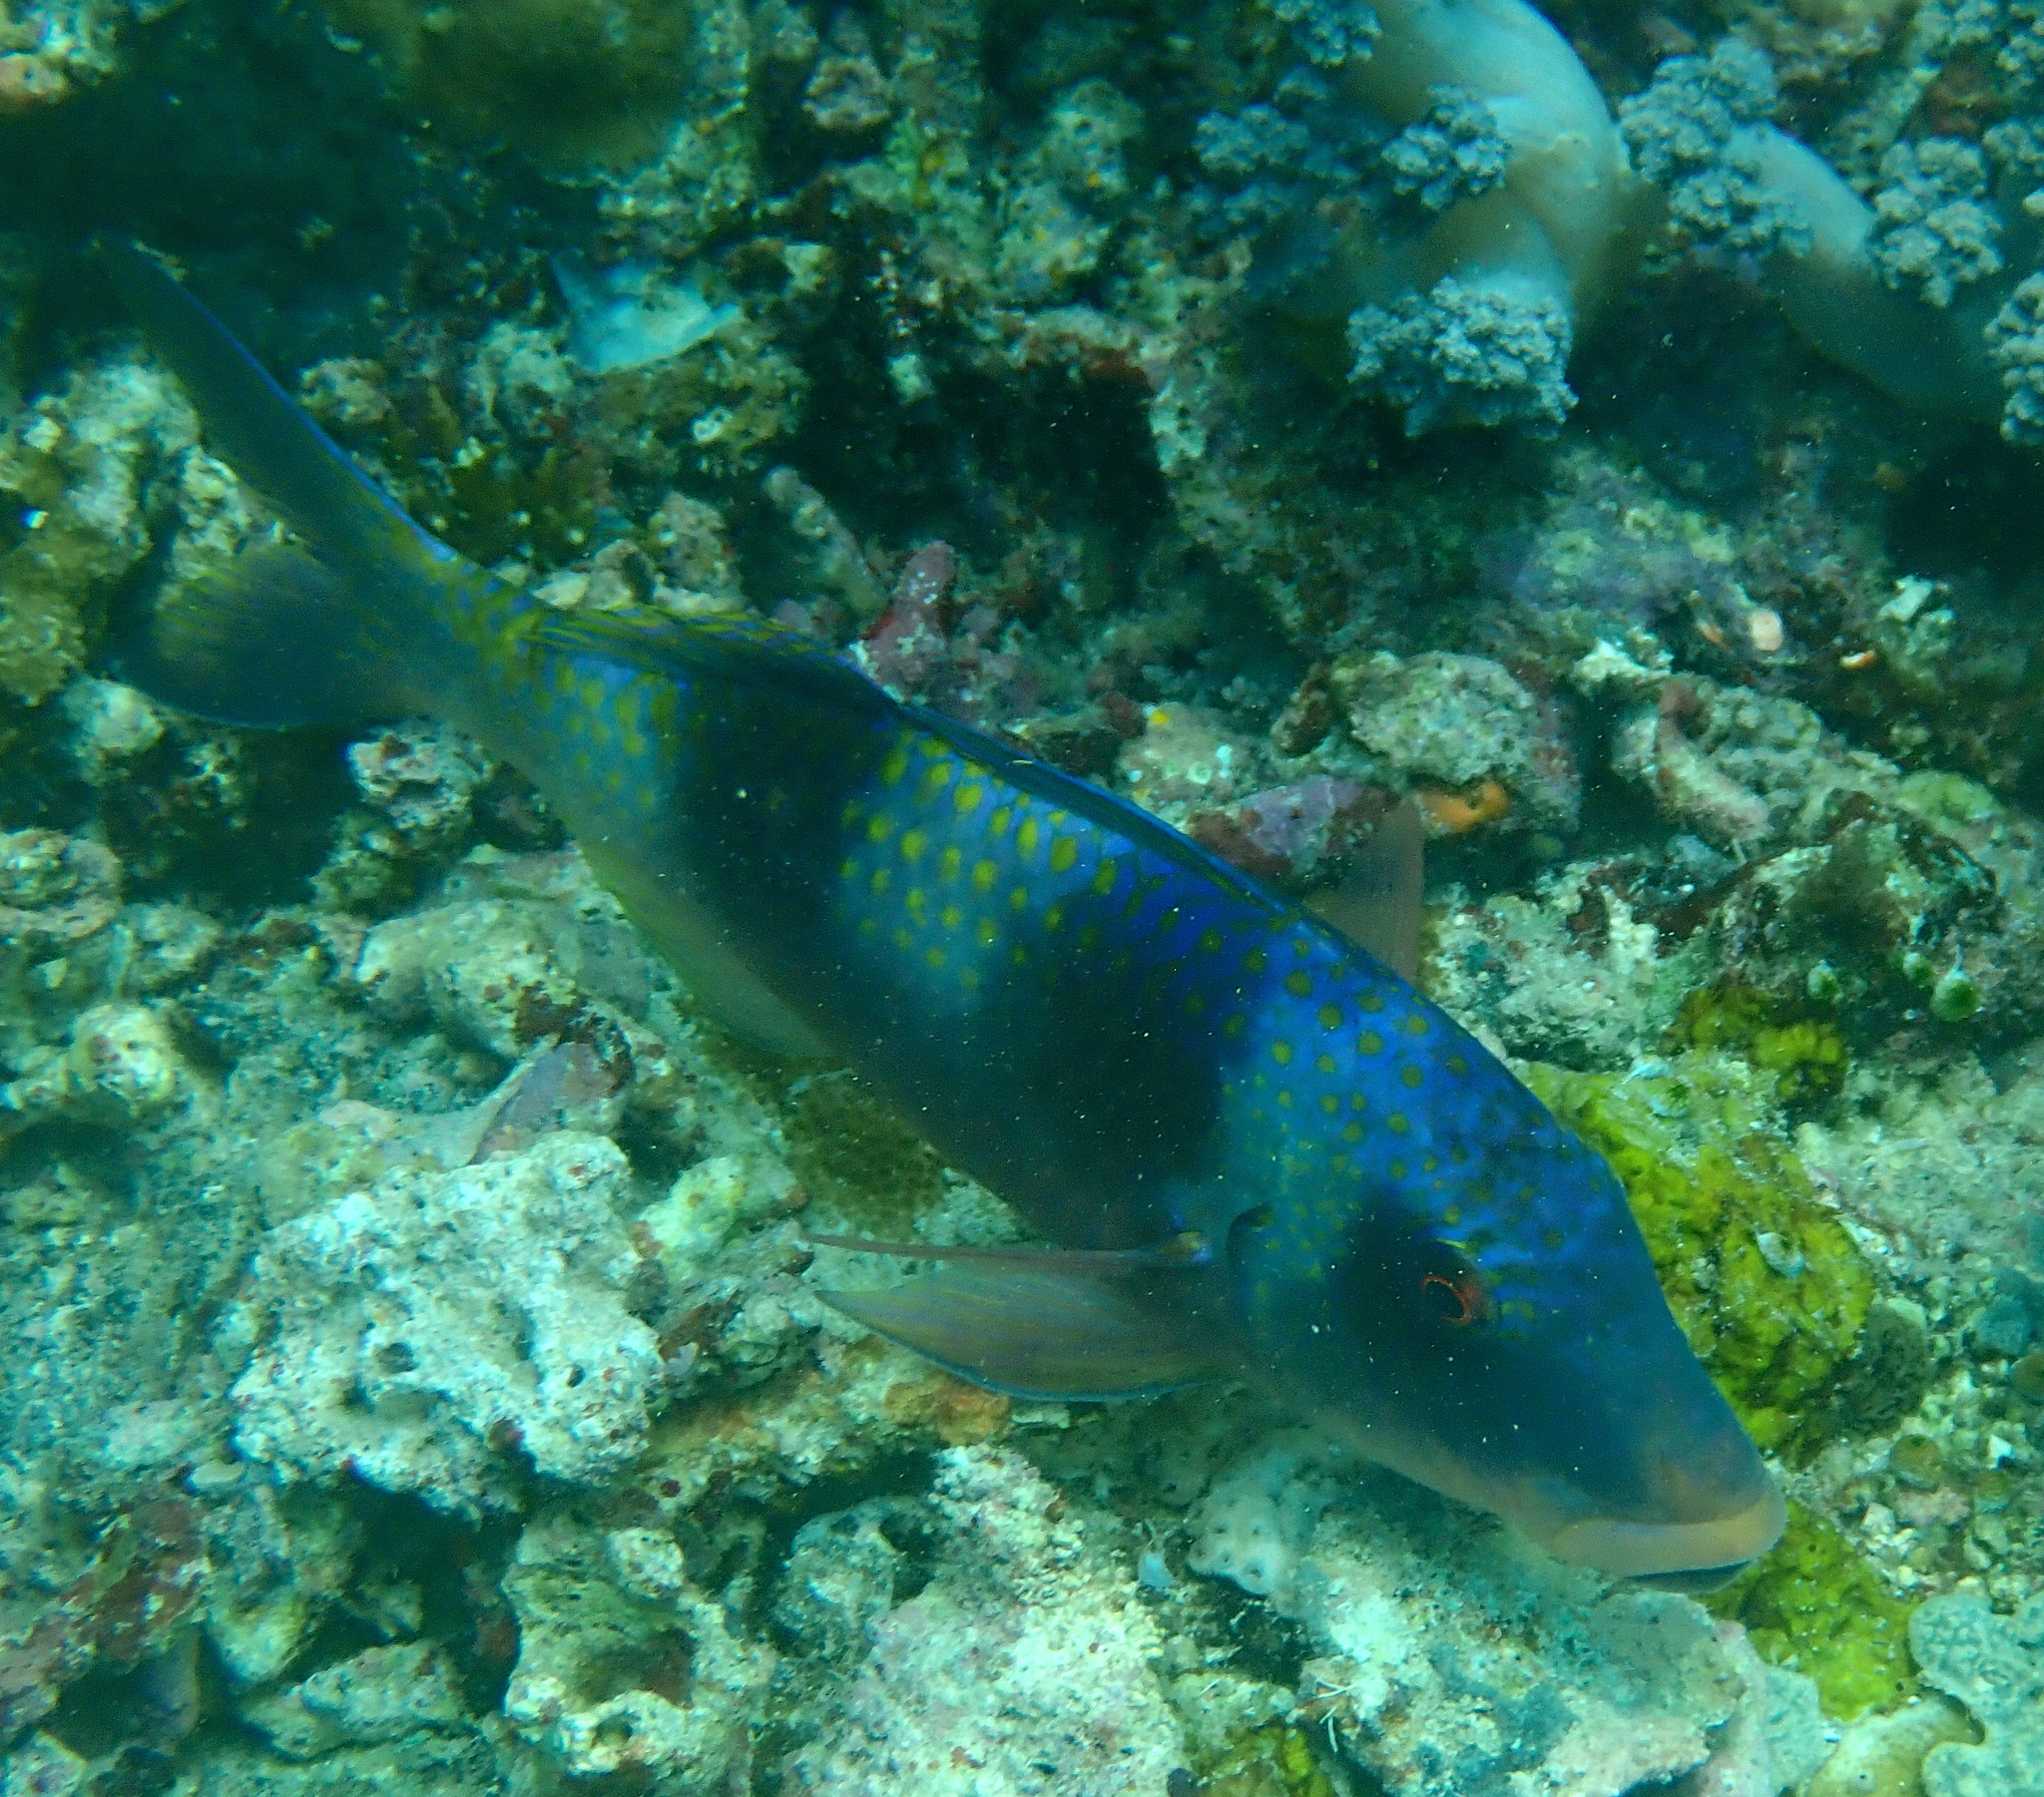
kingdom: Animalia
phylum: Chordata
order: Perciformes
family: Mullidae
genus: Parupeneus
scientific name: Parupeneus crassilabris
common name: Doublebar goatfish
